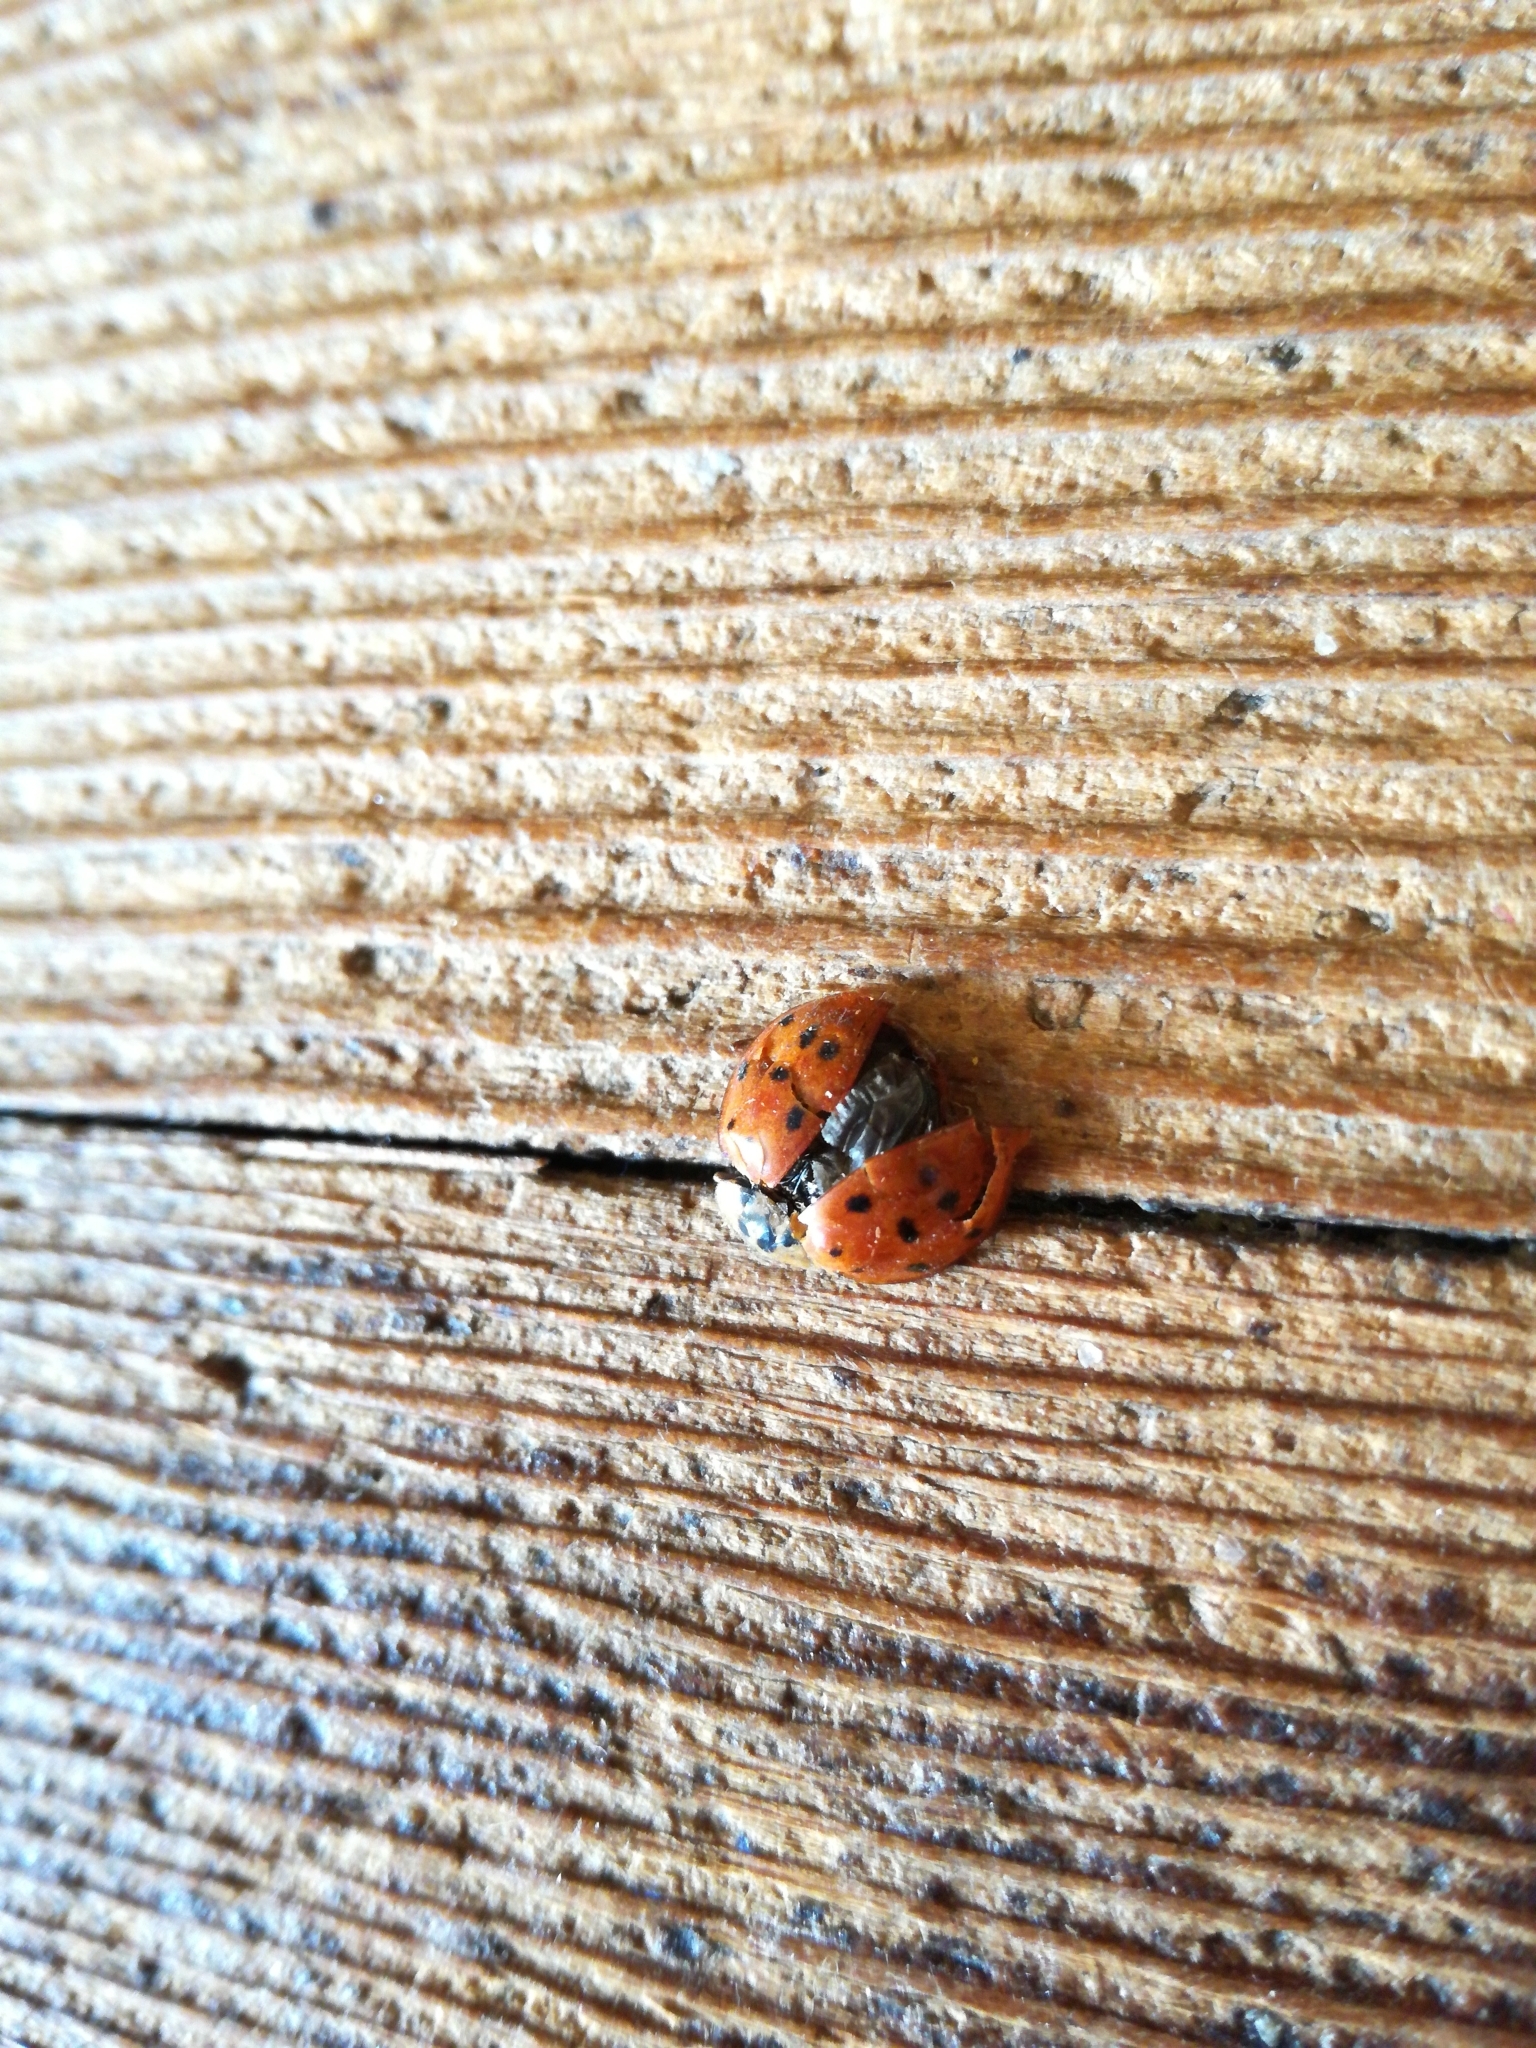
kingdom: Animalia
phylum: Arthropoda
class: Insecta
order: Coleoptera
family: Coccinellidae
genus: Harmonia
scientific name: Harmonia axyridis
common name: Harlequin ladybird
